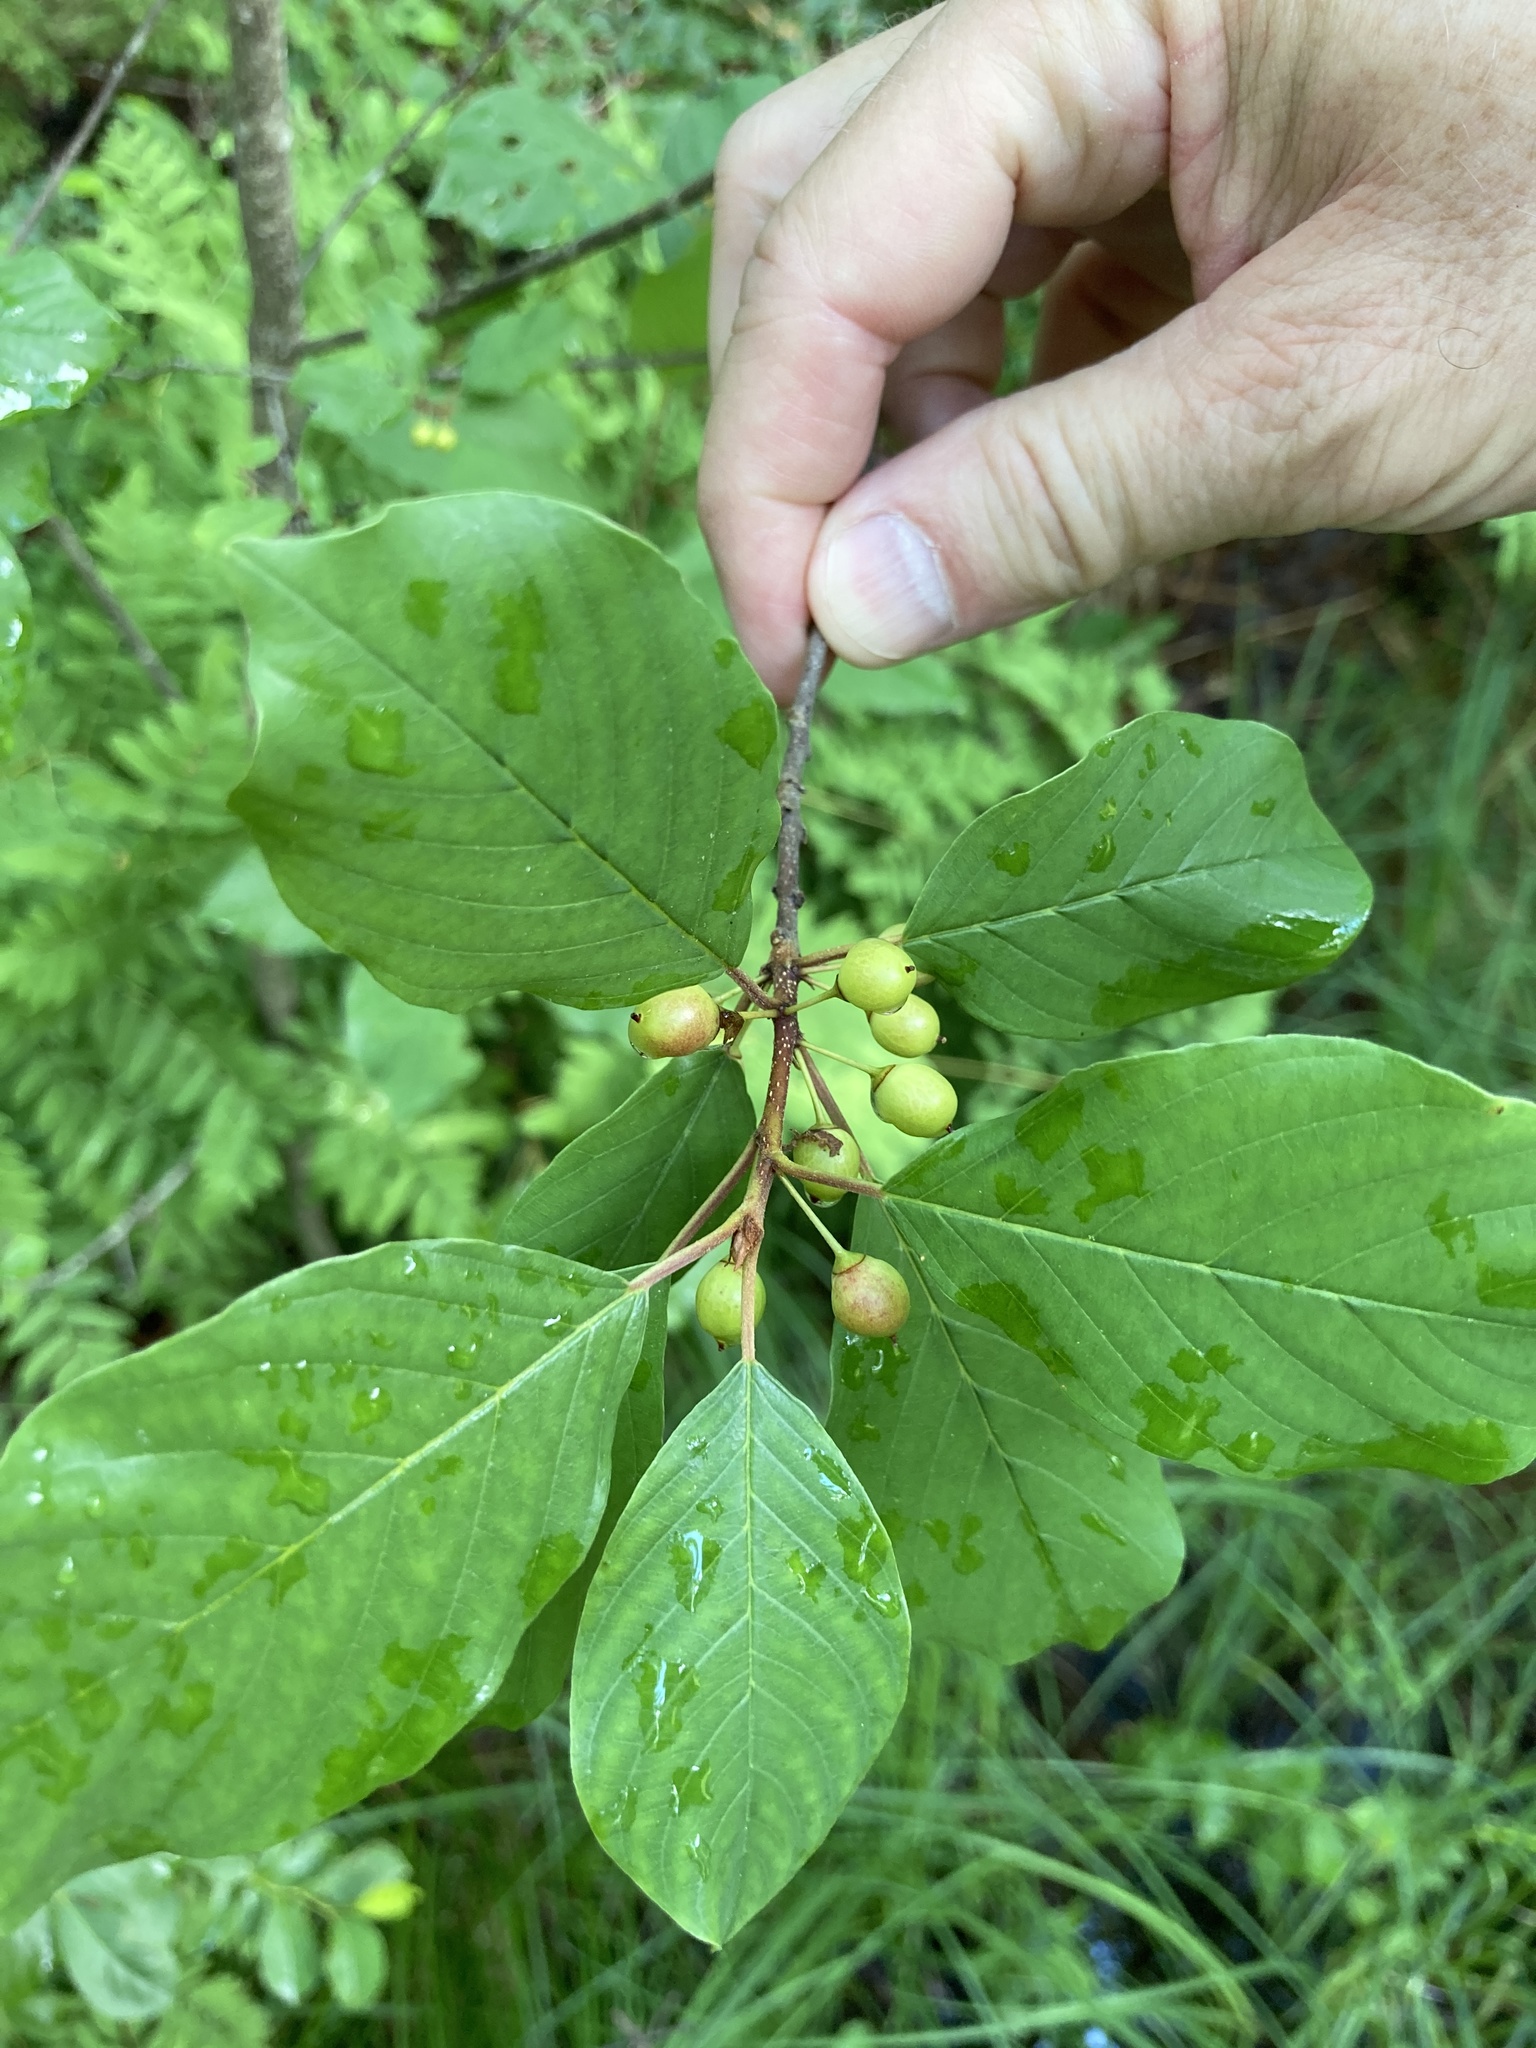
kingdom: Plantae
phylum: Tracheophyta
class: Magnoliopsida
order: Rosales
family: Rhamnaceae
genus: Frangula
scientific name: Frangula alnus
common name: Alder buckthorn
